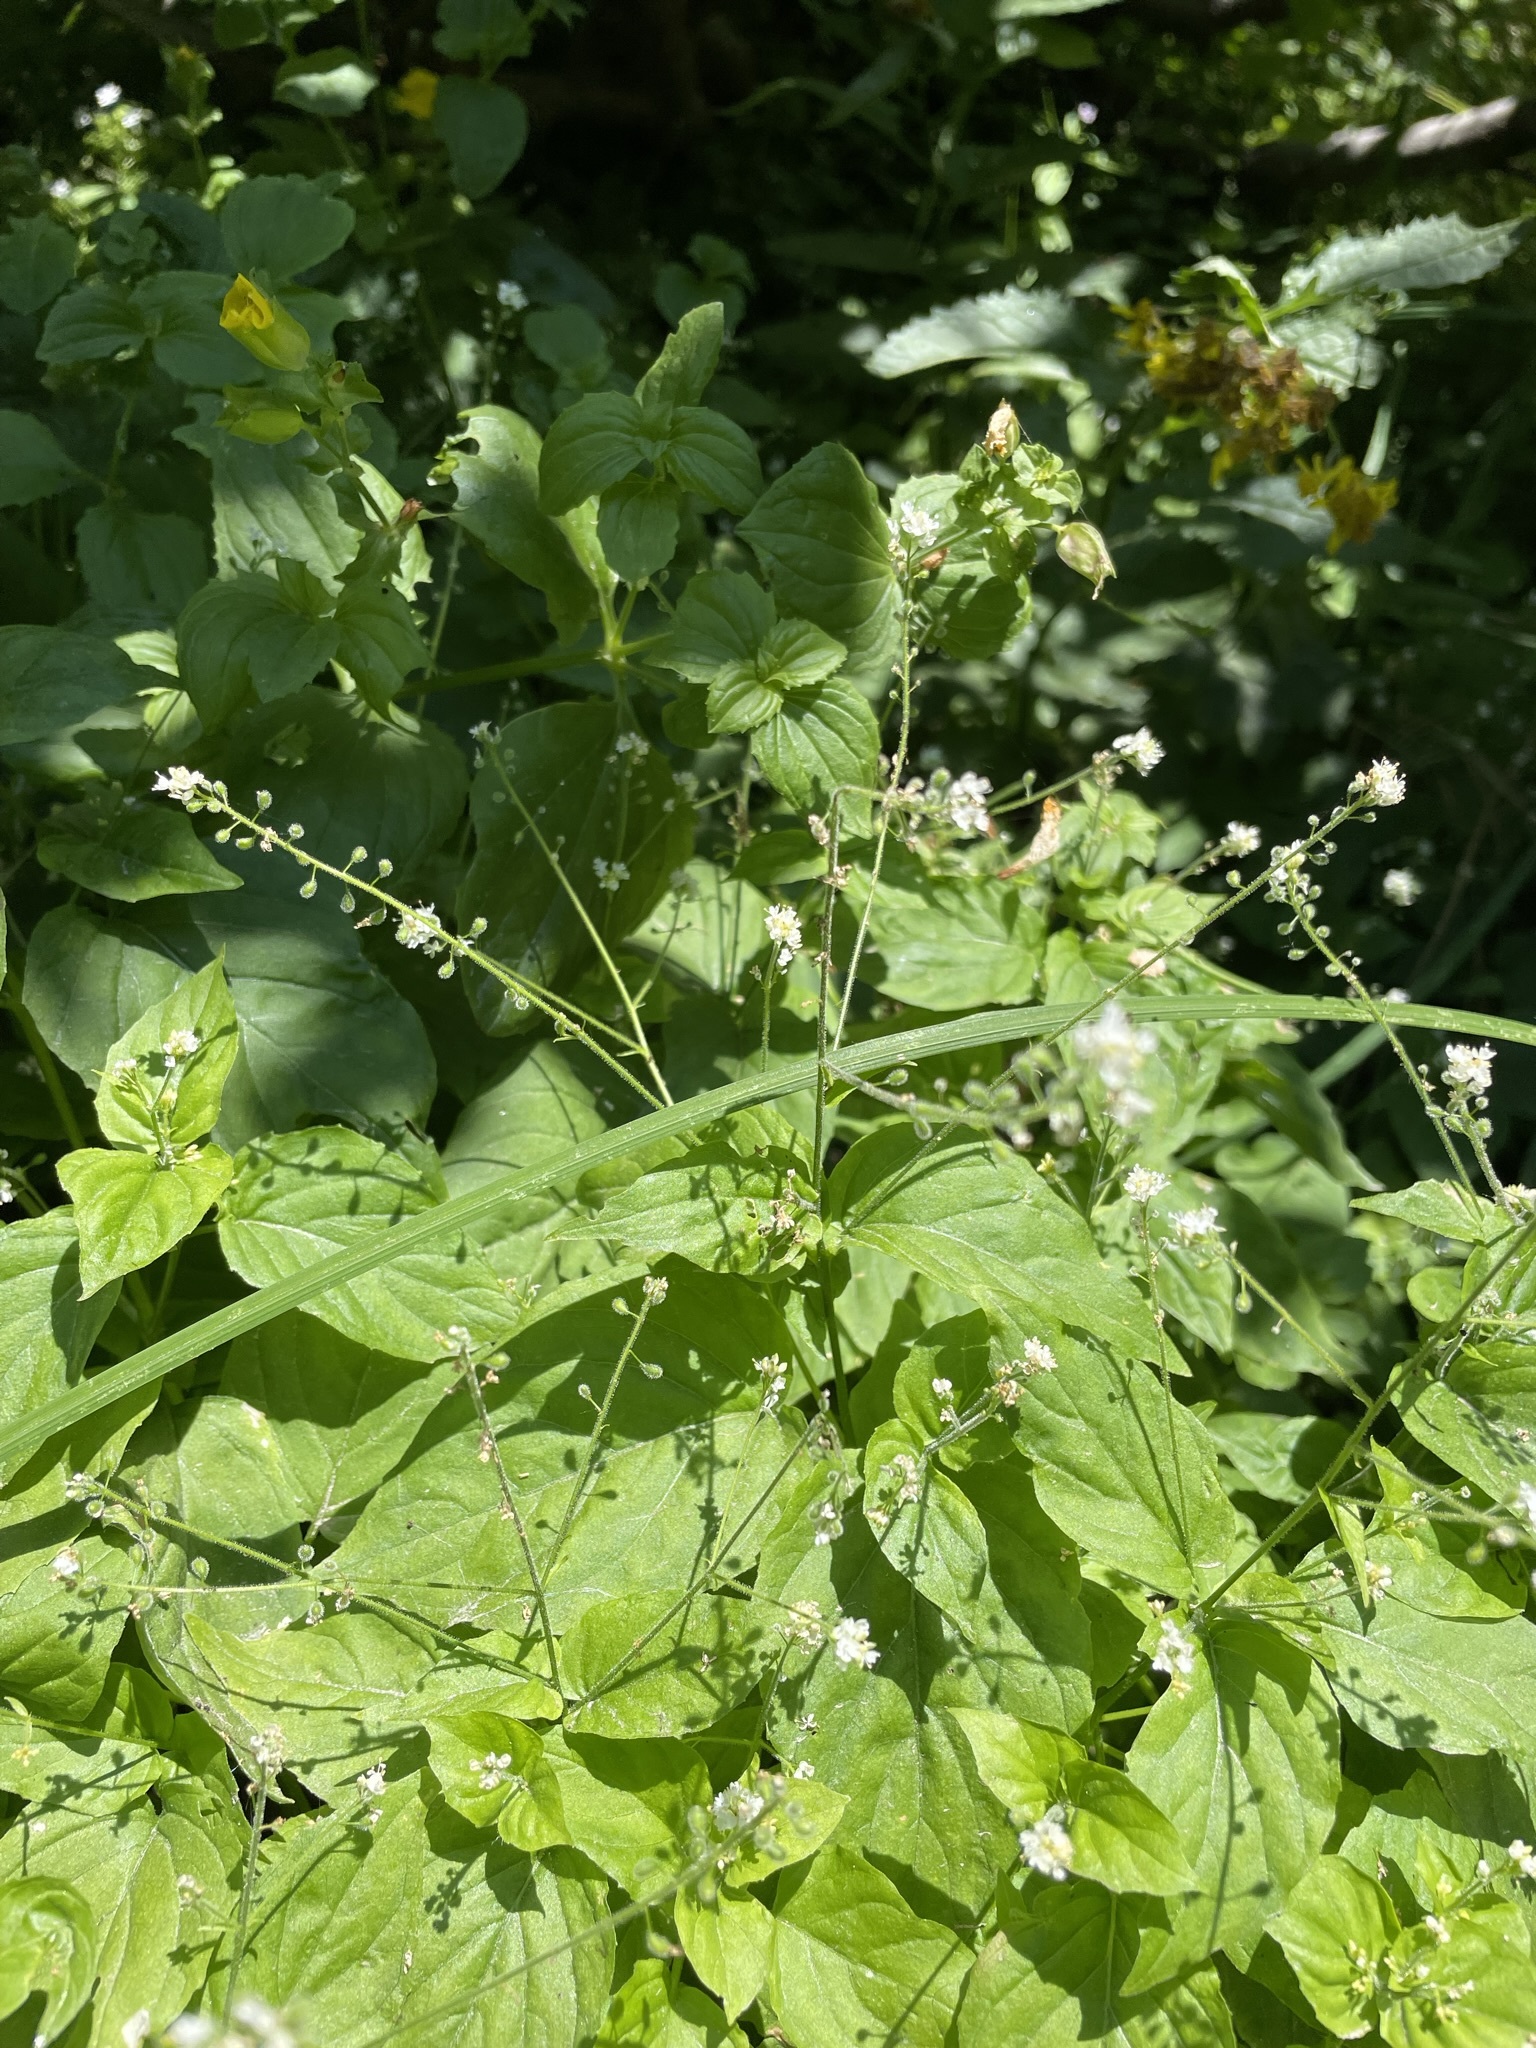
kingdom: Plantae
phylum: Tracheophyta
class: Magnoliopsida
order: Myrtales
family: Onagraceae
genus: Circaea
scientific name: Circaea alpina
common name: Alpine enchanter's-nightshade
